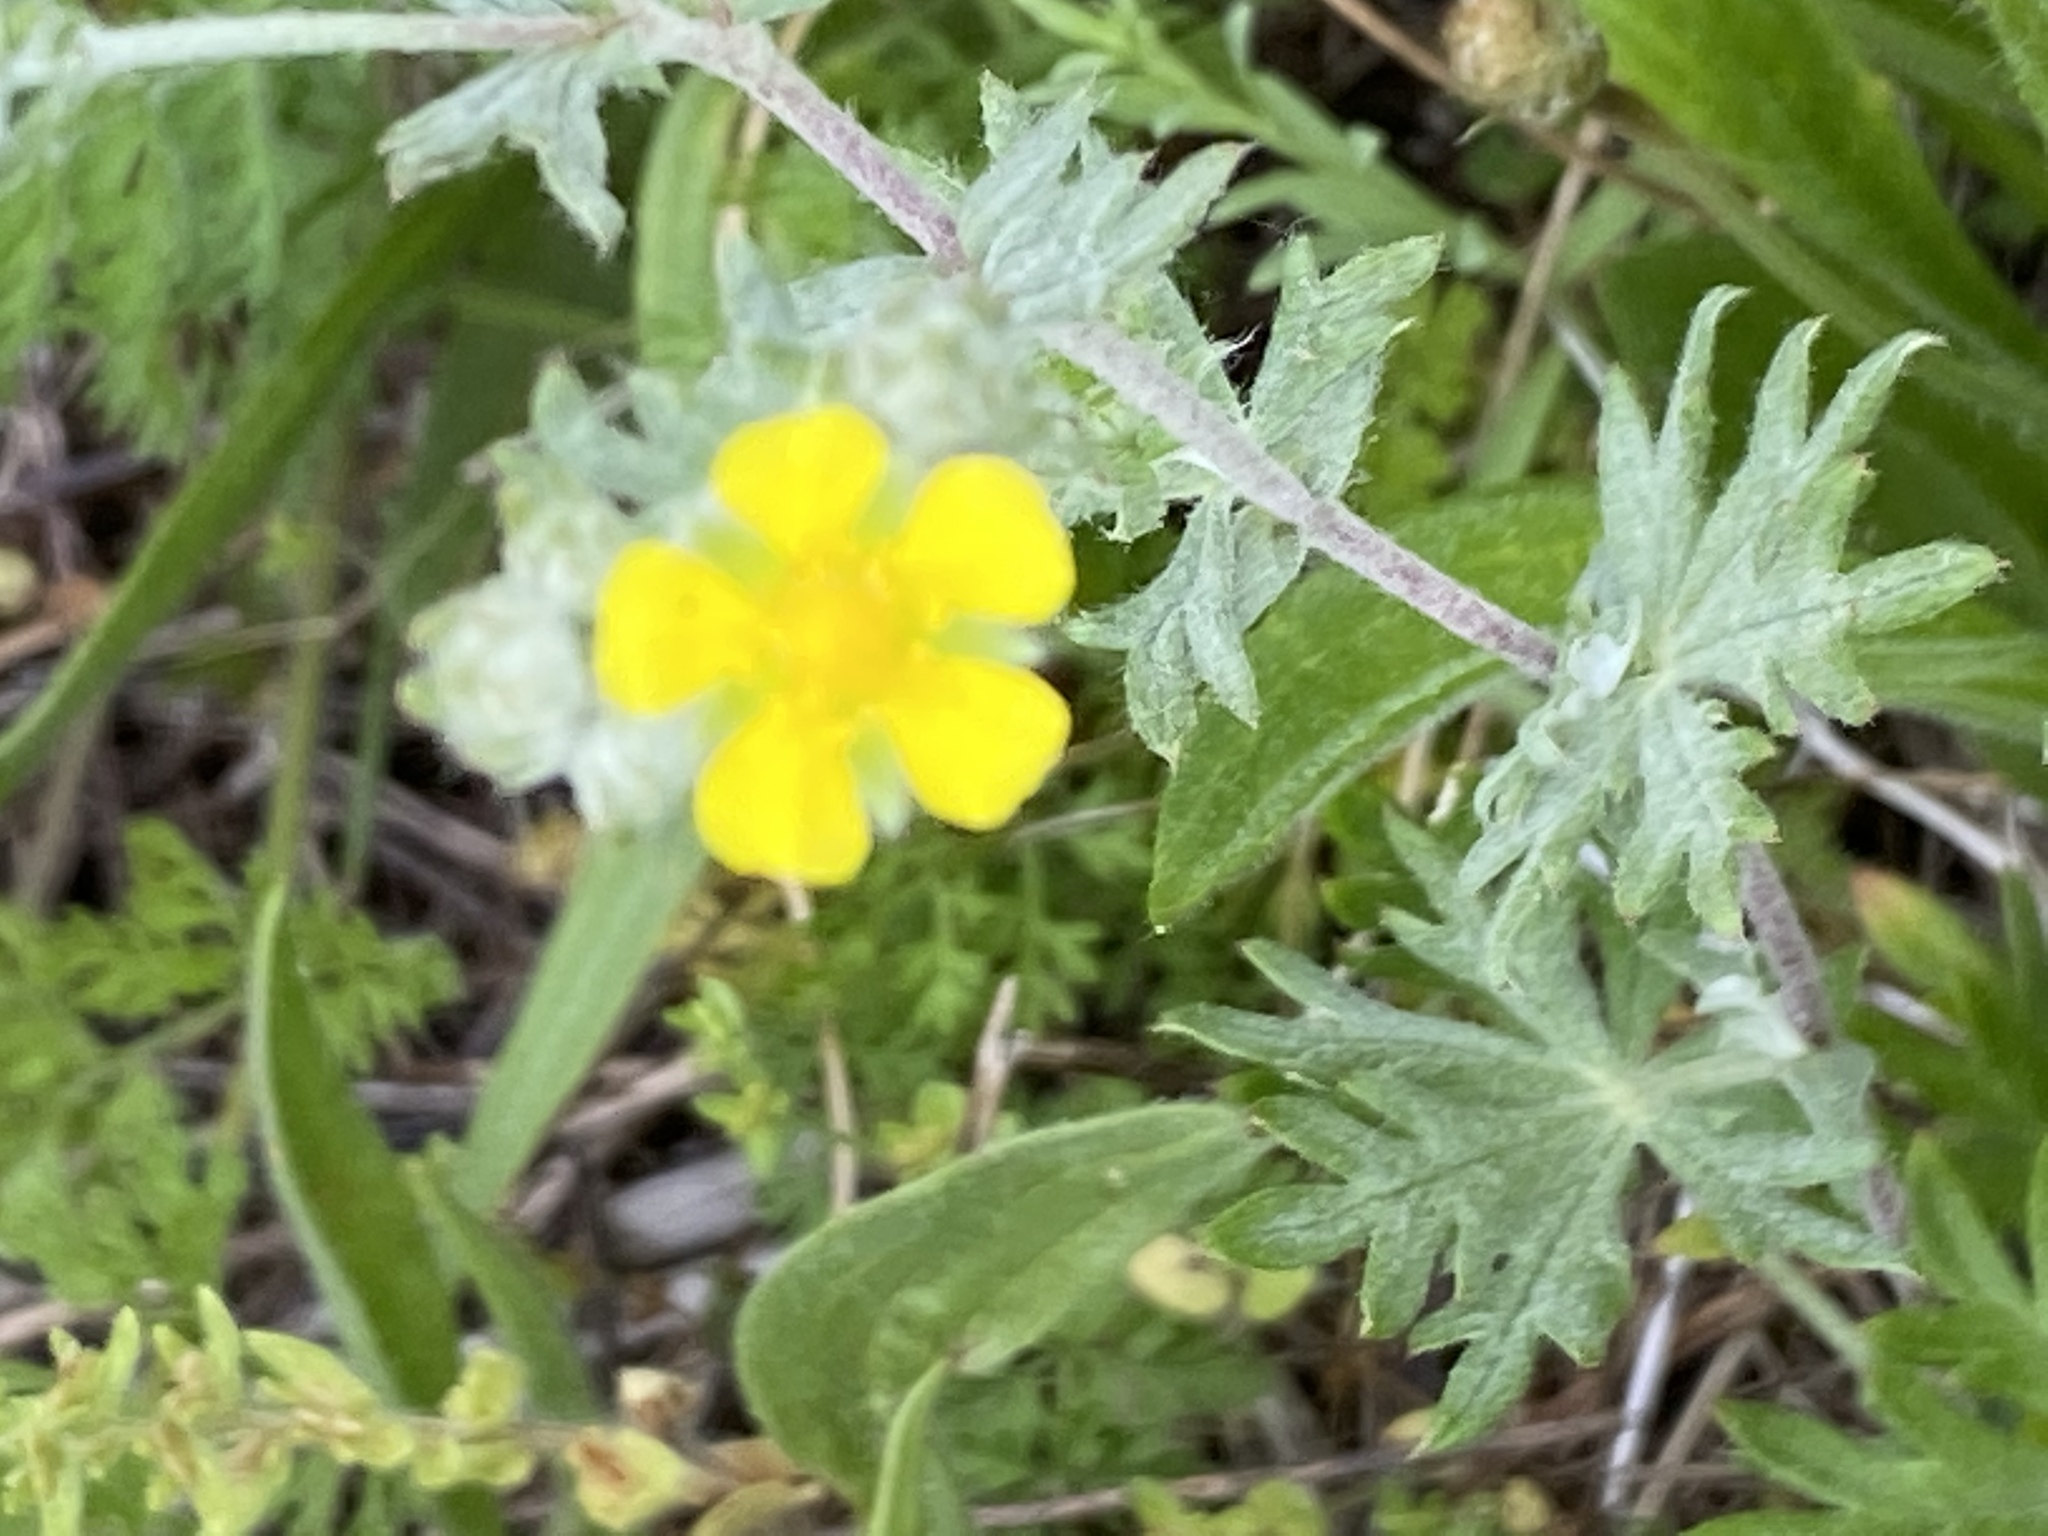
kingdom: Plantae
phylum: Tracheophyta
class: Magnoliopsida
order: Rosales
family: Rosaceae
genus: Potentilla
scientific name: Potentilla argentea
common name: Hoary cinquefoil
